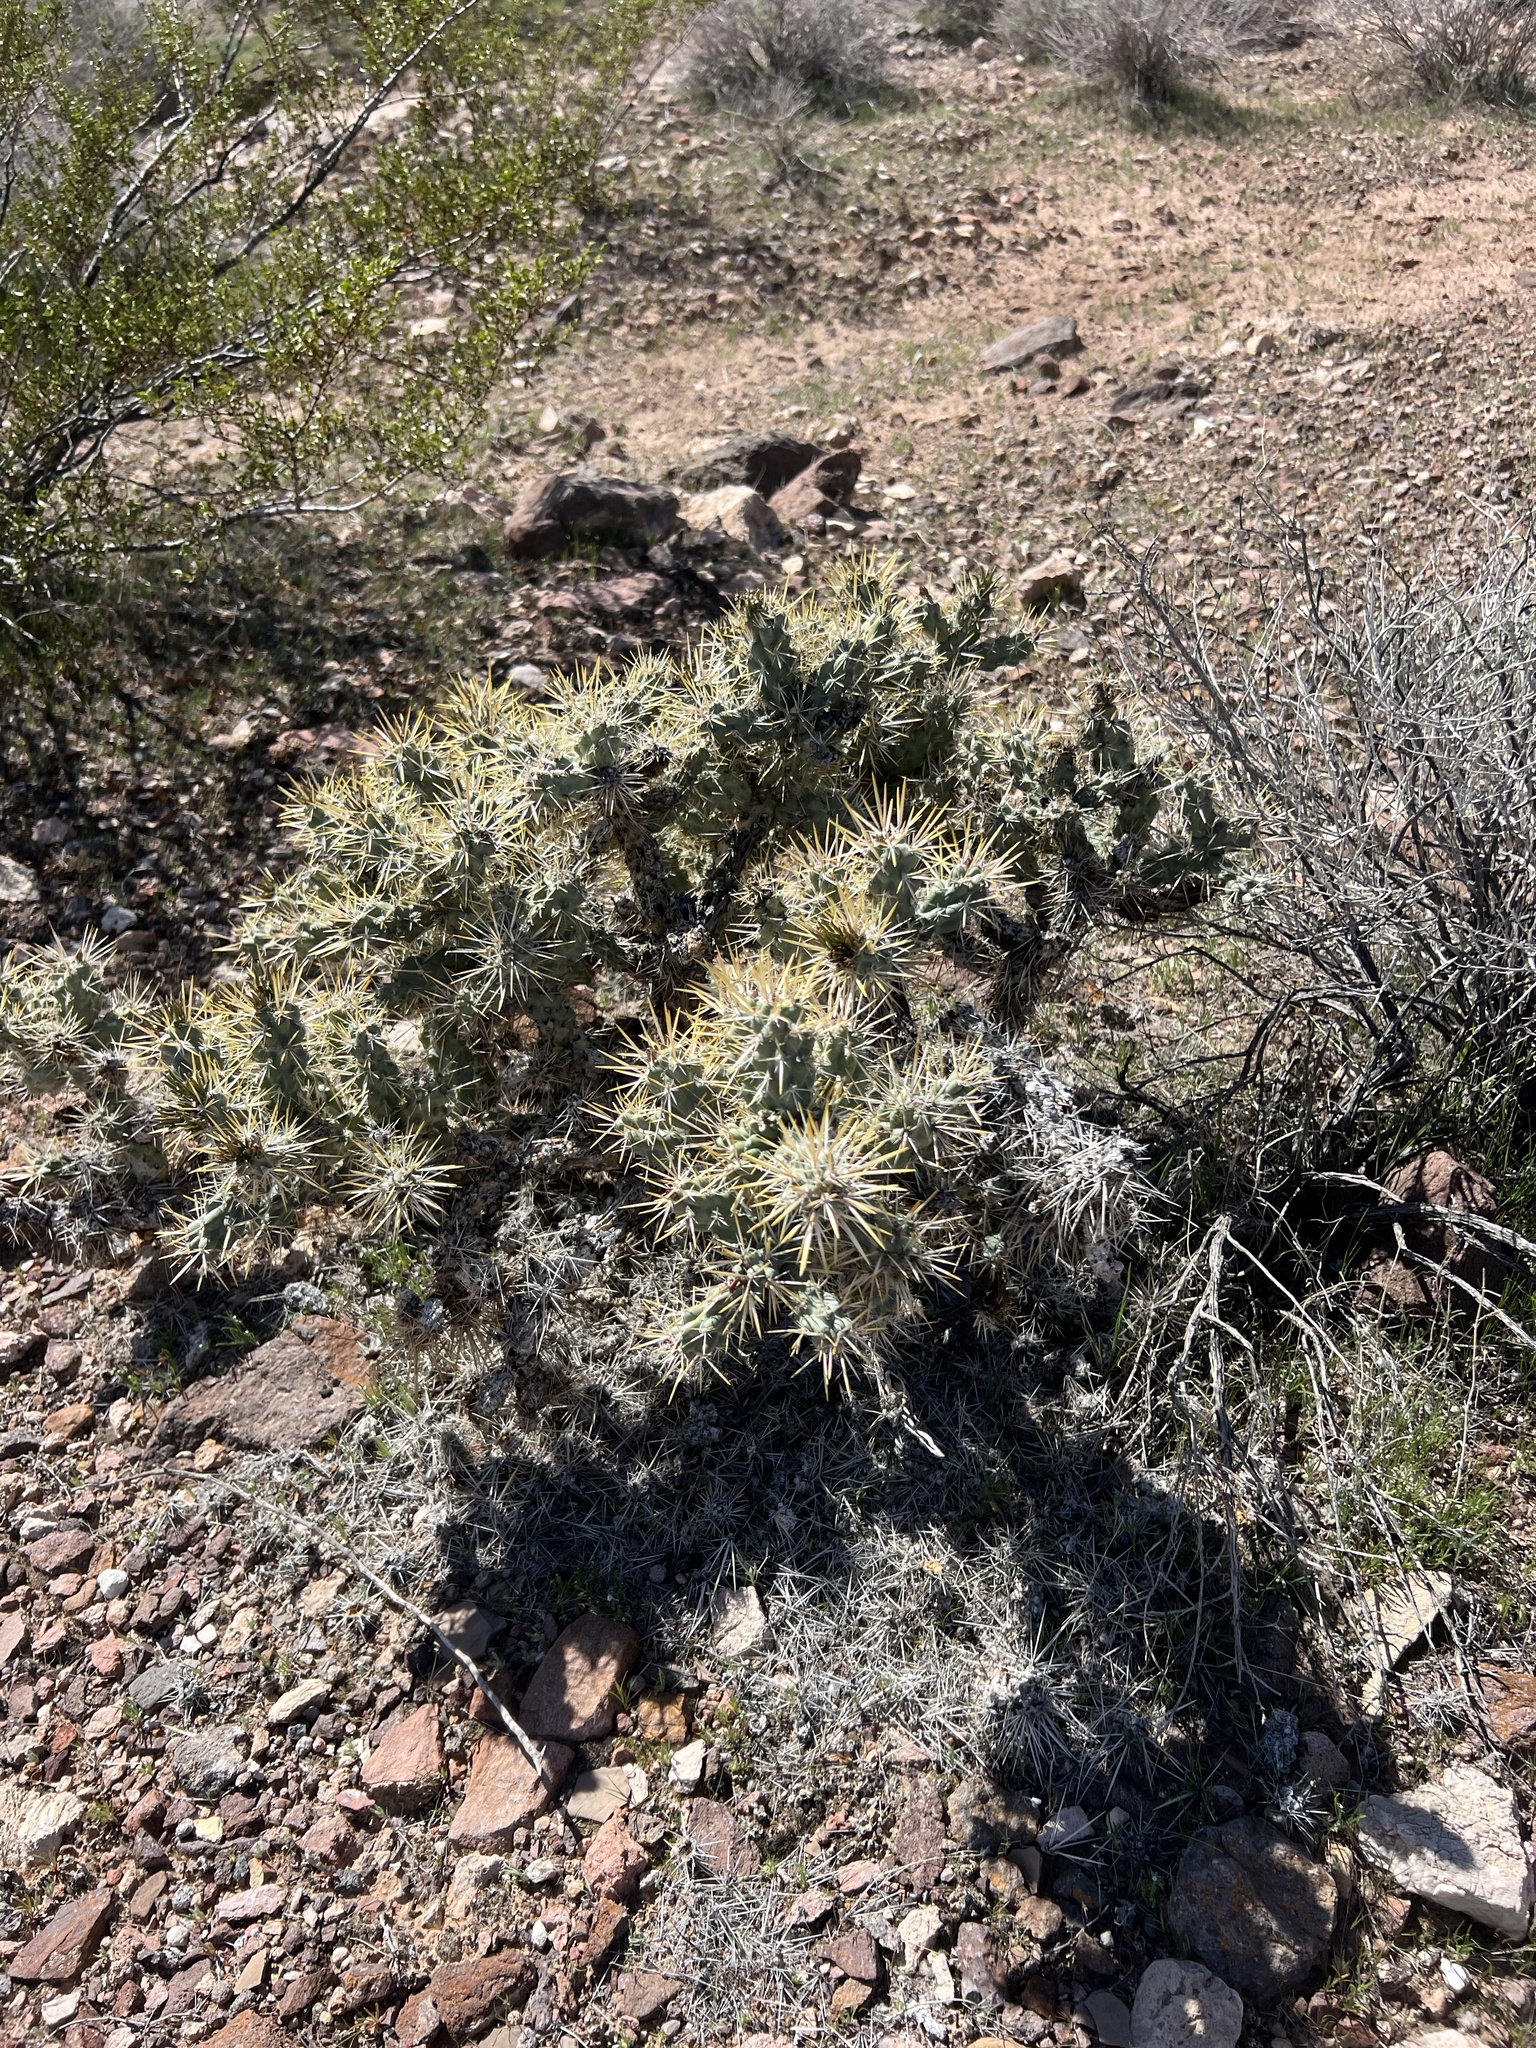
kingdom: Plantae
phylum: Tracheophyta
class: Magnoliopsida
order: Caryophyllales
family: Cactaceae
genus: Cylindropuntia
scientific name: Cylindropuntia echinocarpa
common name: Ground cholla
